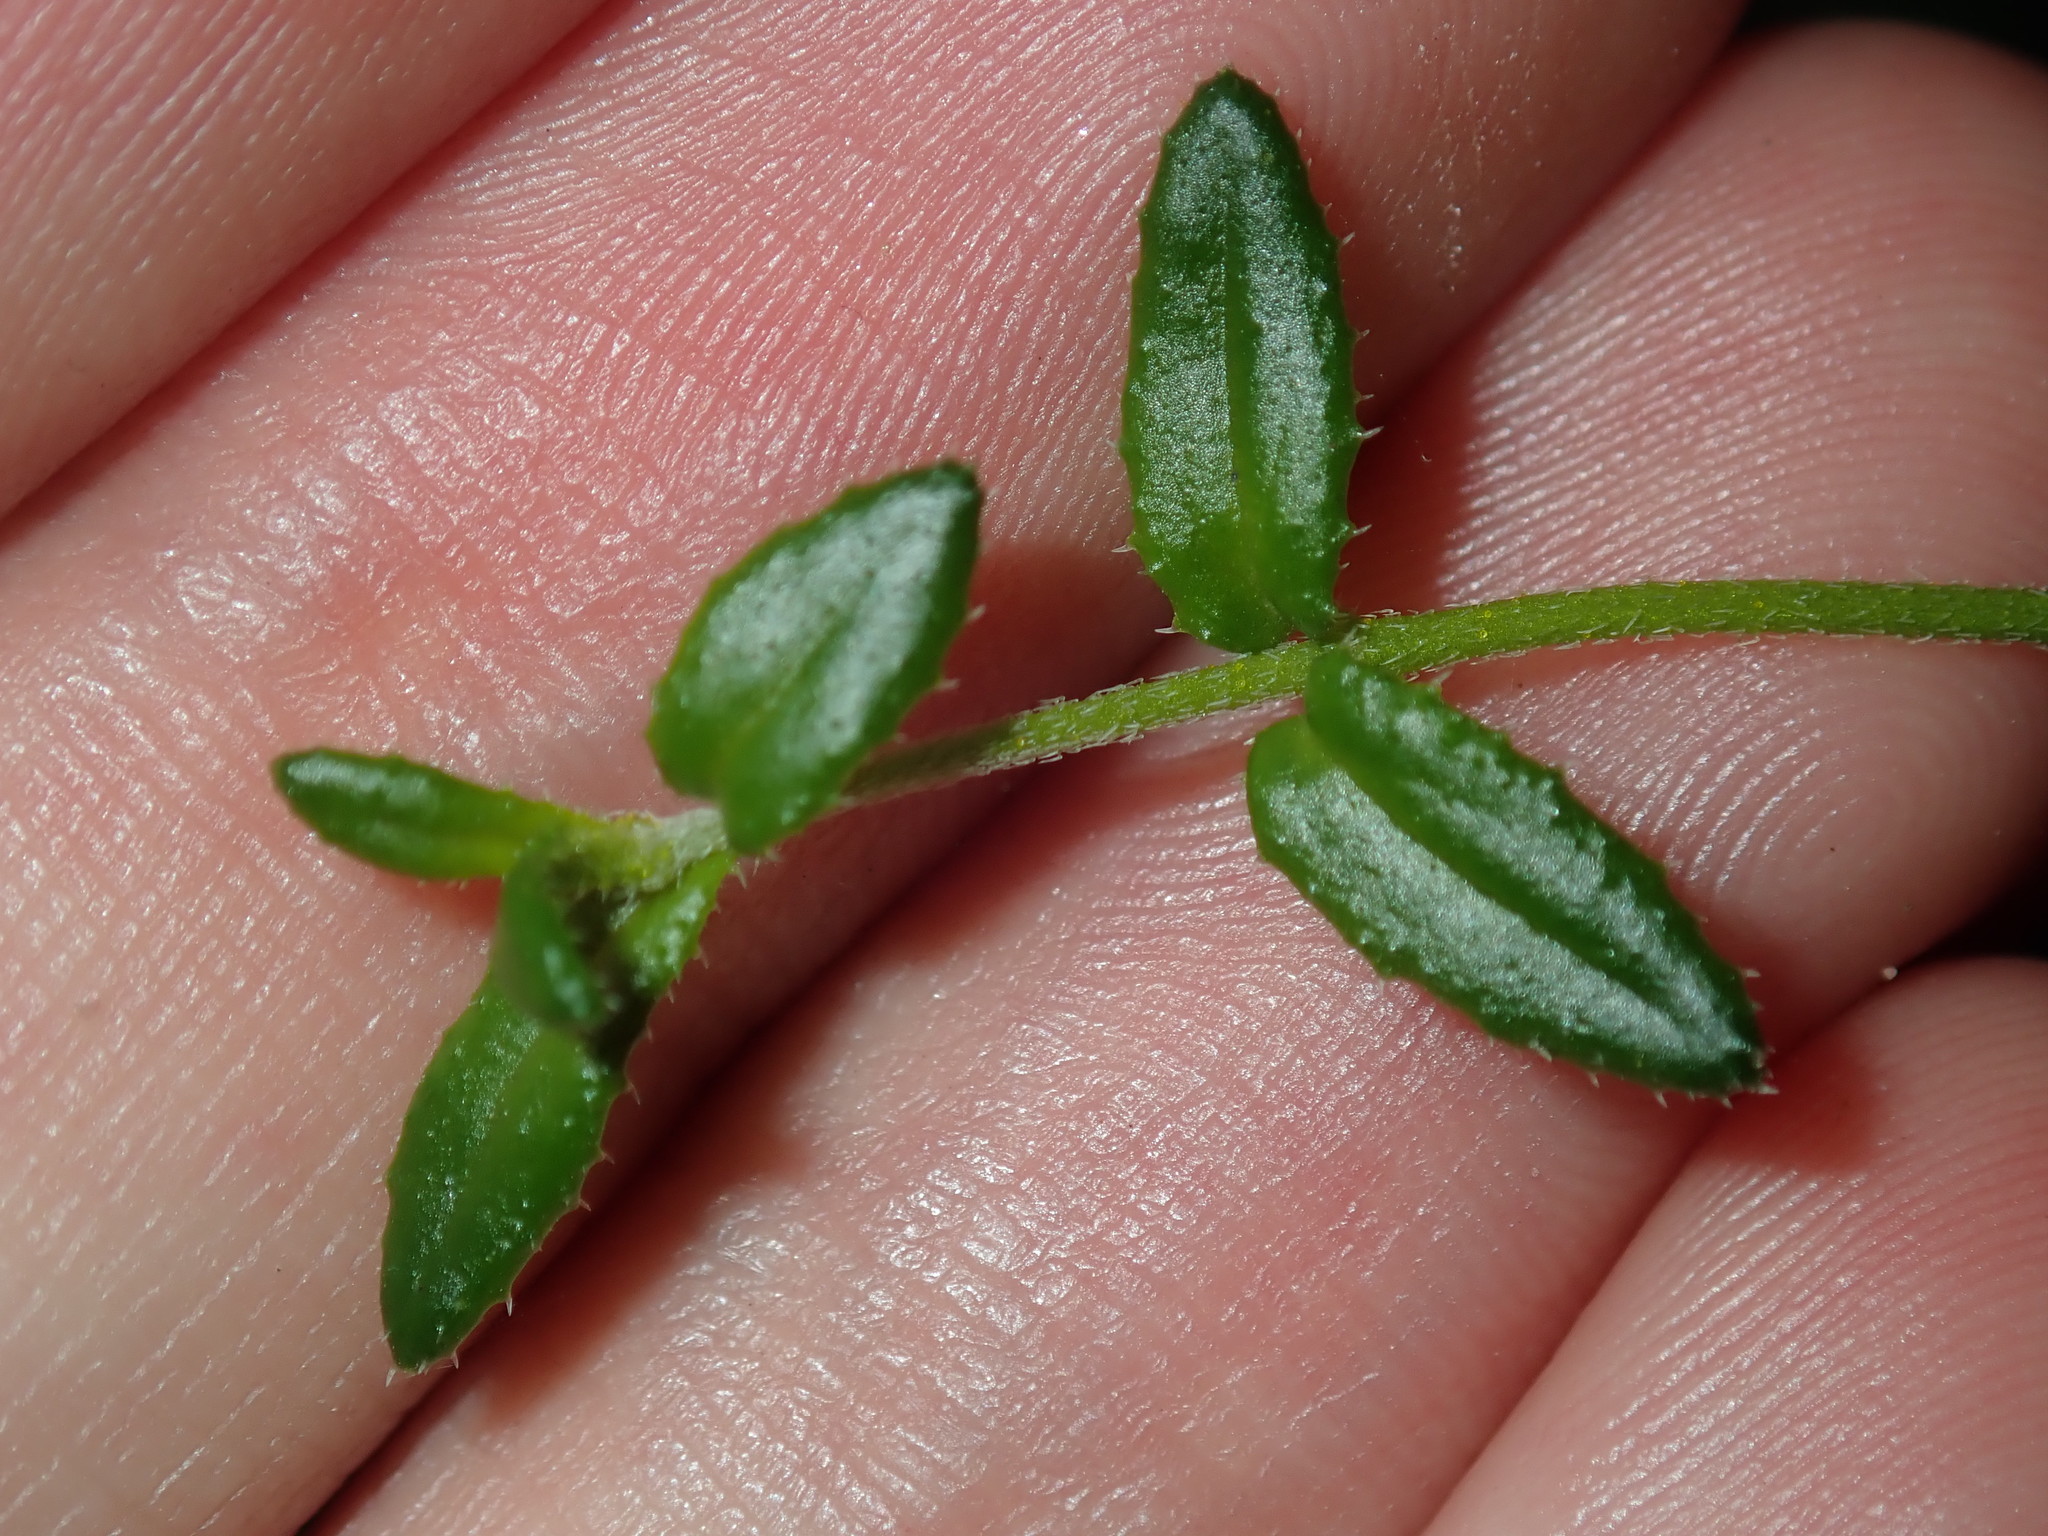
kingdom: Plantae
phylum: Tracheophyta
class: Magnoliopsida
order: Lamiales
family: Lamiaceae
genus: Prostanthera
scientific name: Prostanthera denticulata
